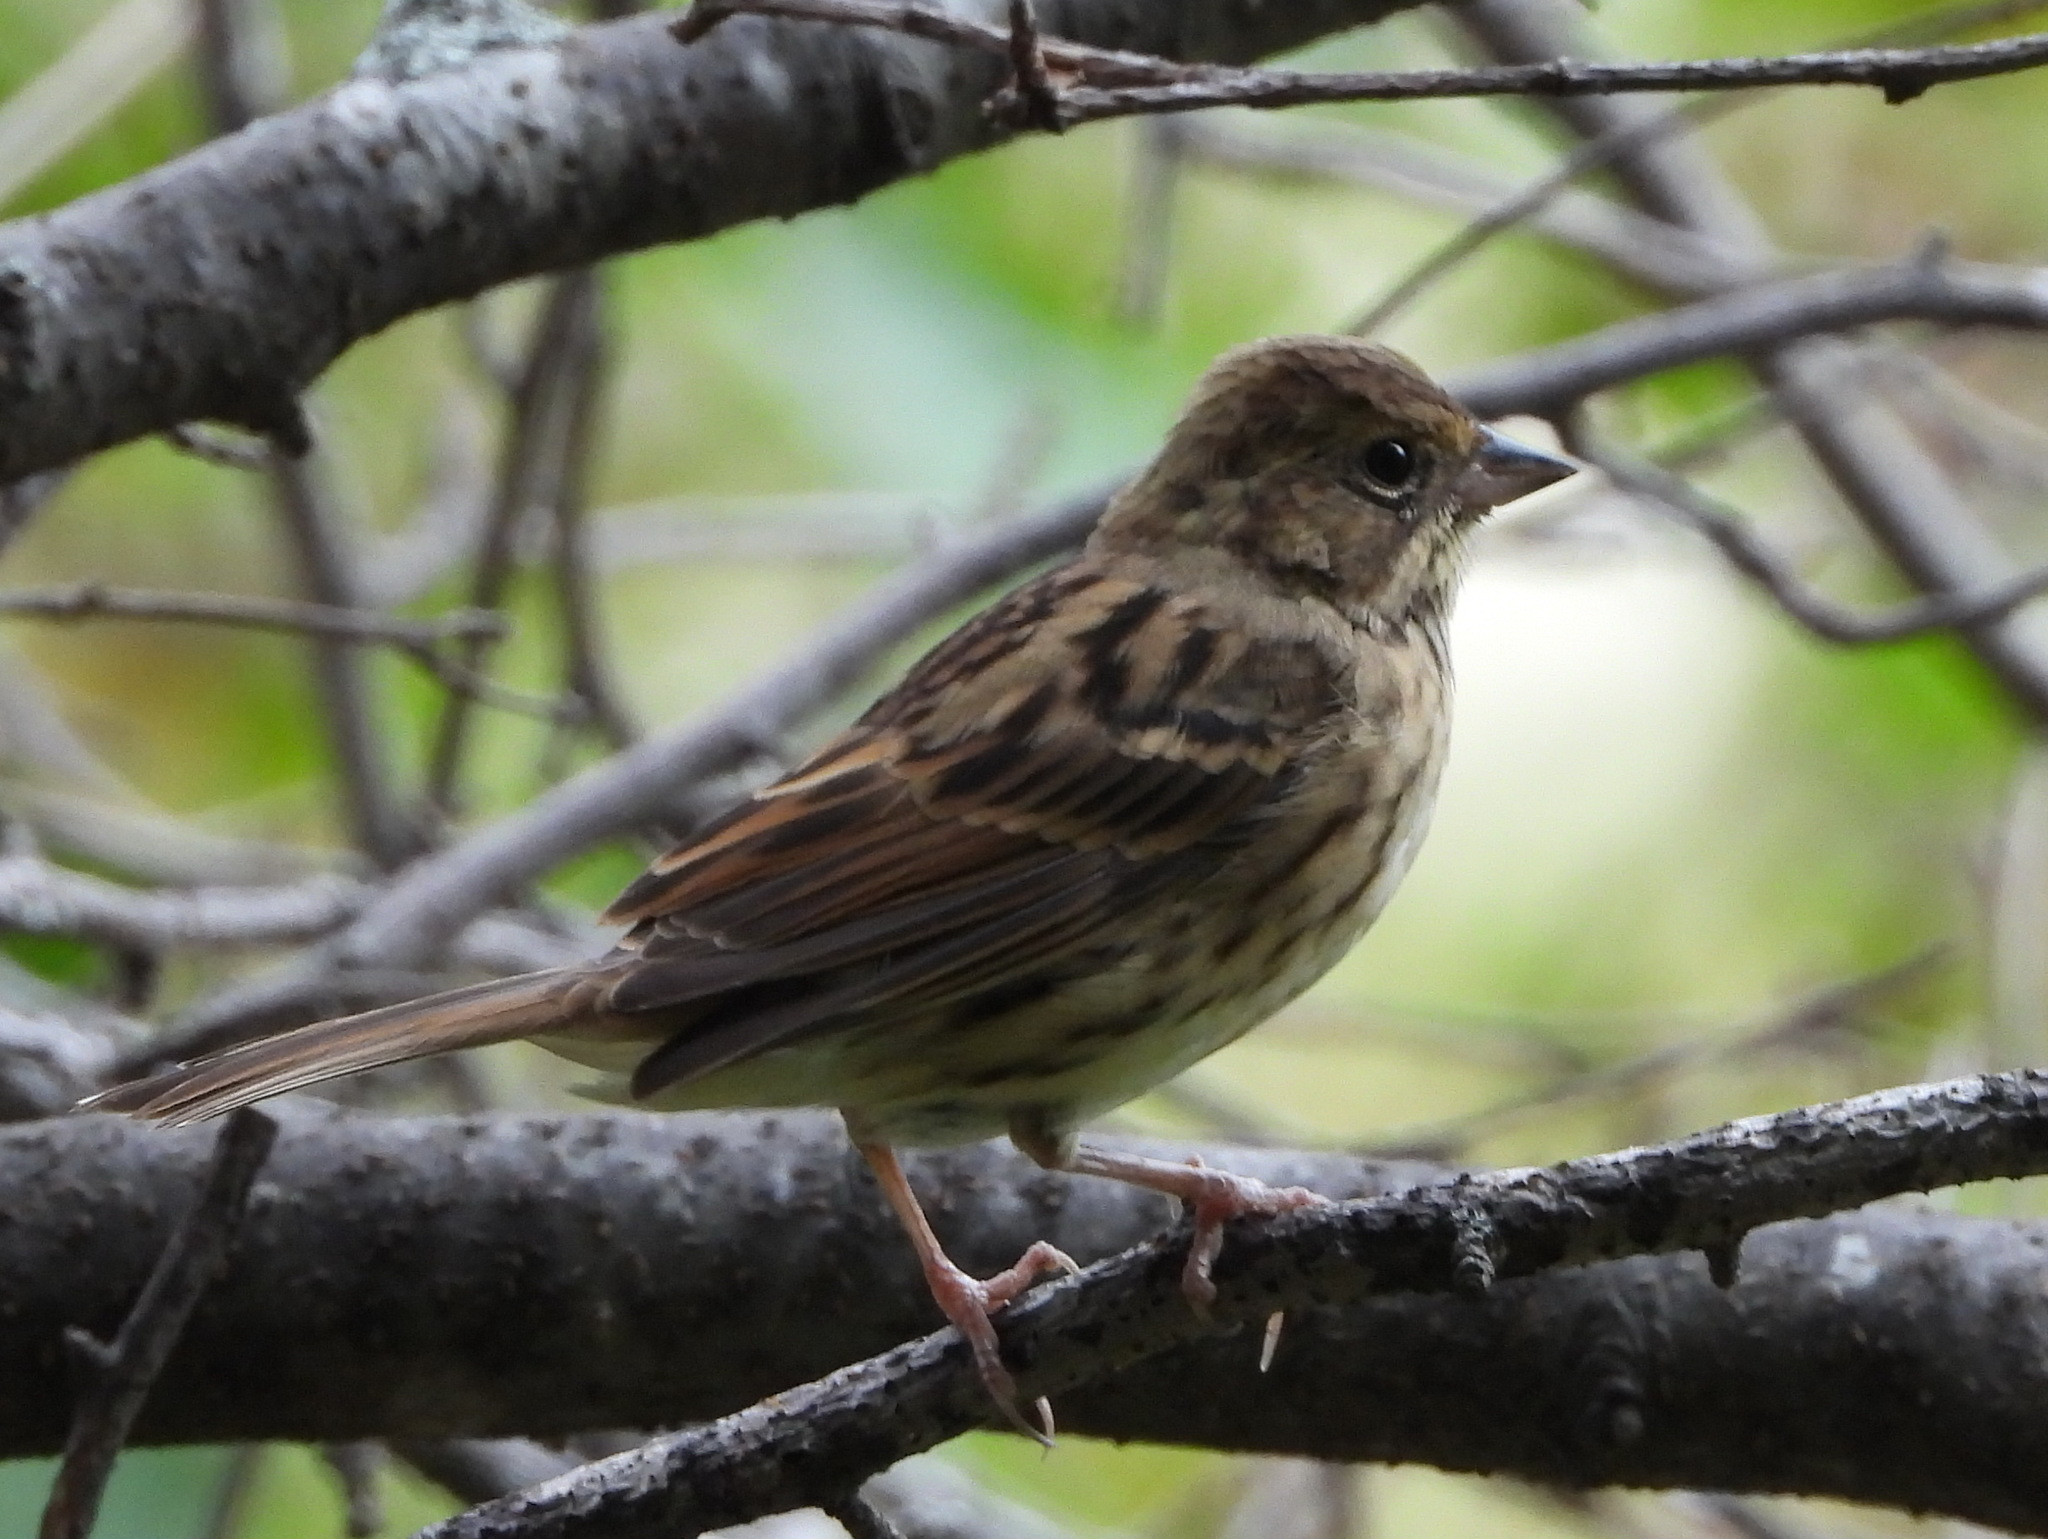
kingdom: Animalia
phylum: Chordata
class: Aves
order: Passeriformes
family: Emberizidae
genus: Emberiza
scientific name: Emberiza spodocephala
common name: Black-faced bunting
